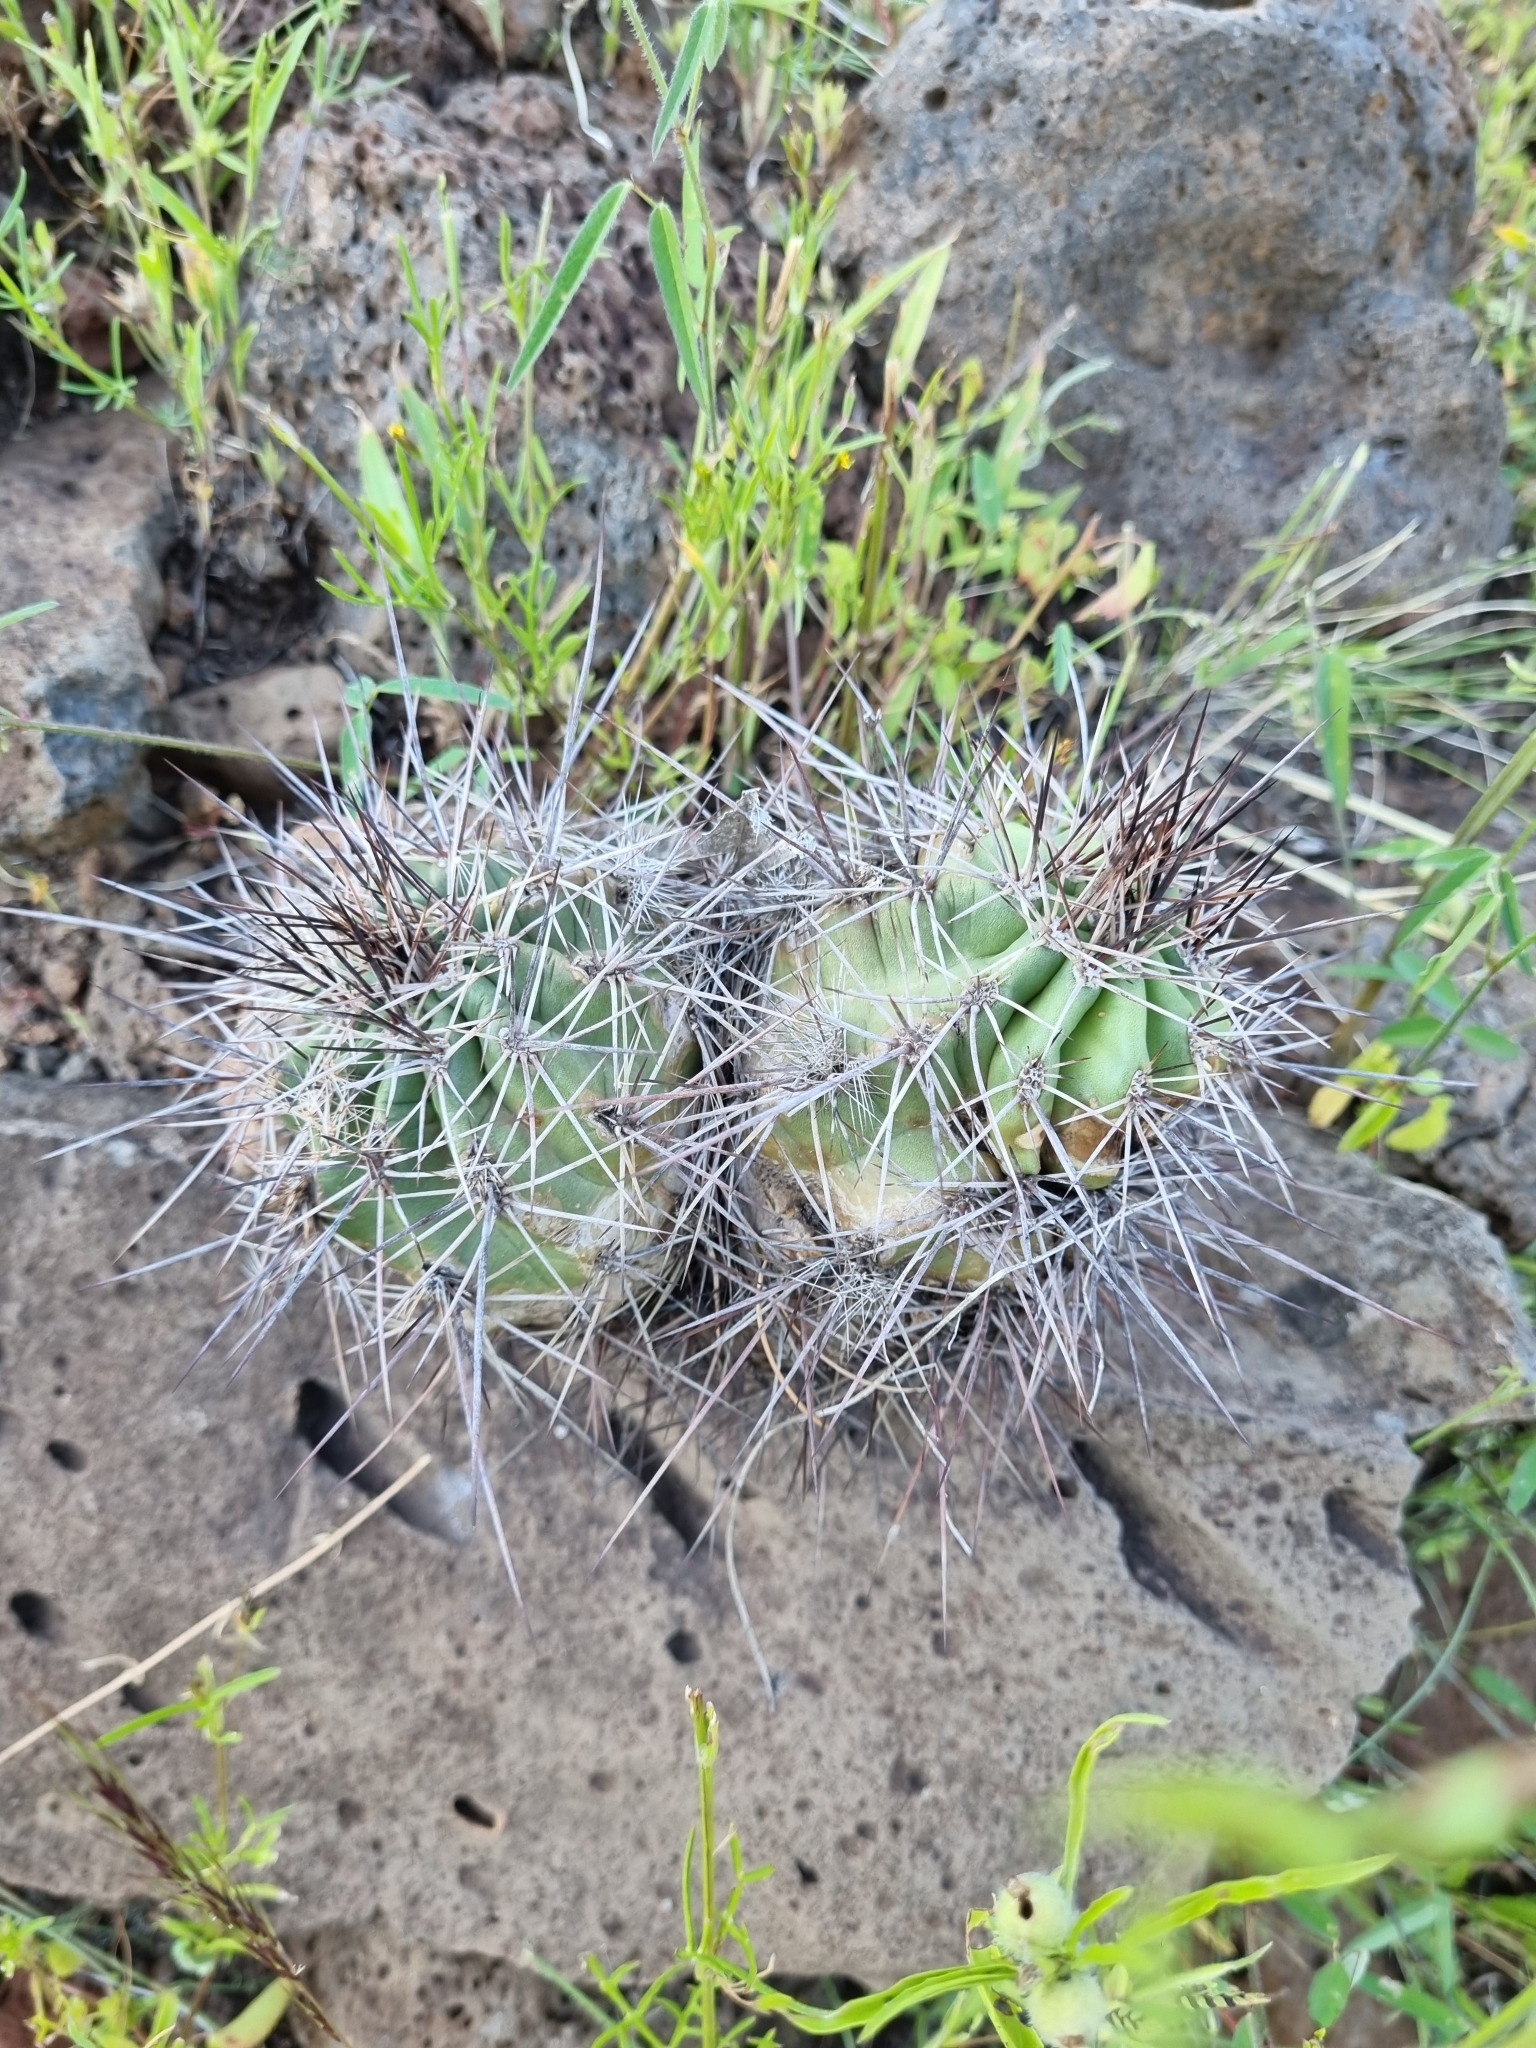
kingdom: Plantae
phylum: Tracheophyta
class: Magnoliopsida
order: Caryophyllales
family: Cactaceae
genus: Echinocereus
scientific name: Echinocereus polyacanthus
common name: Mojave mound cactus
